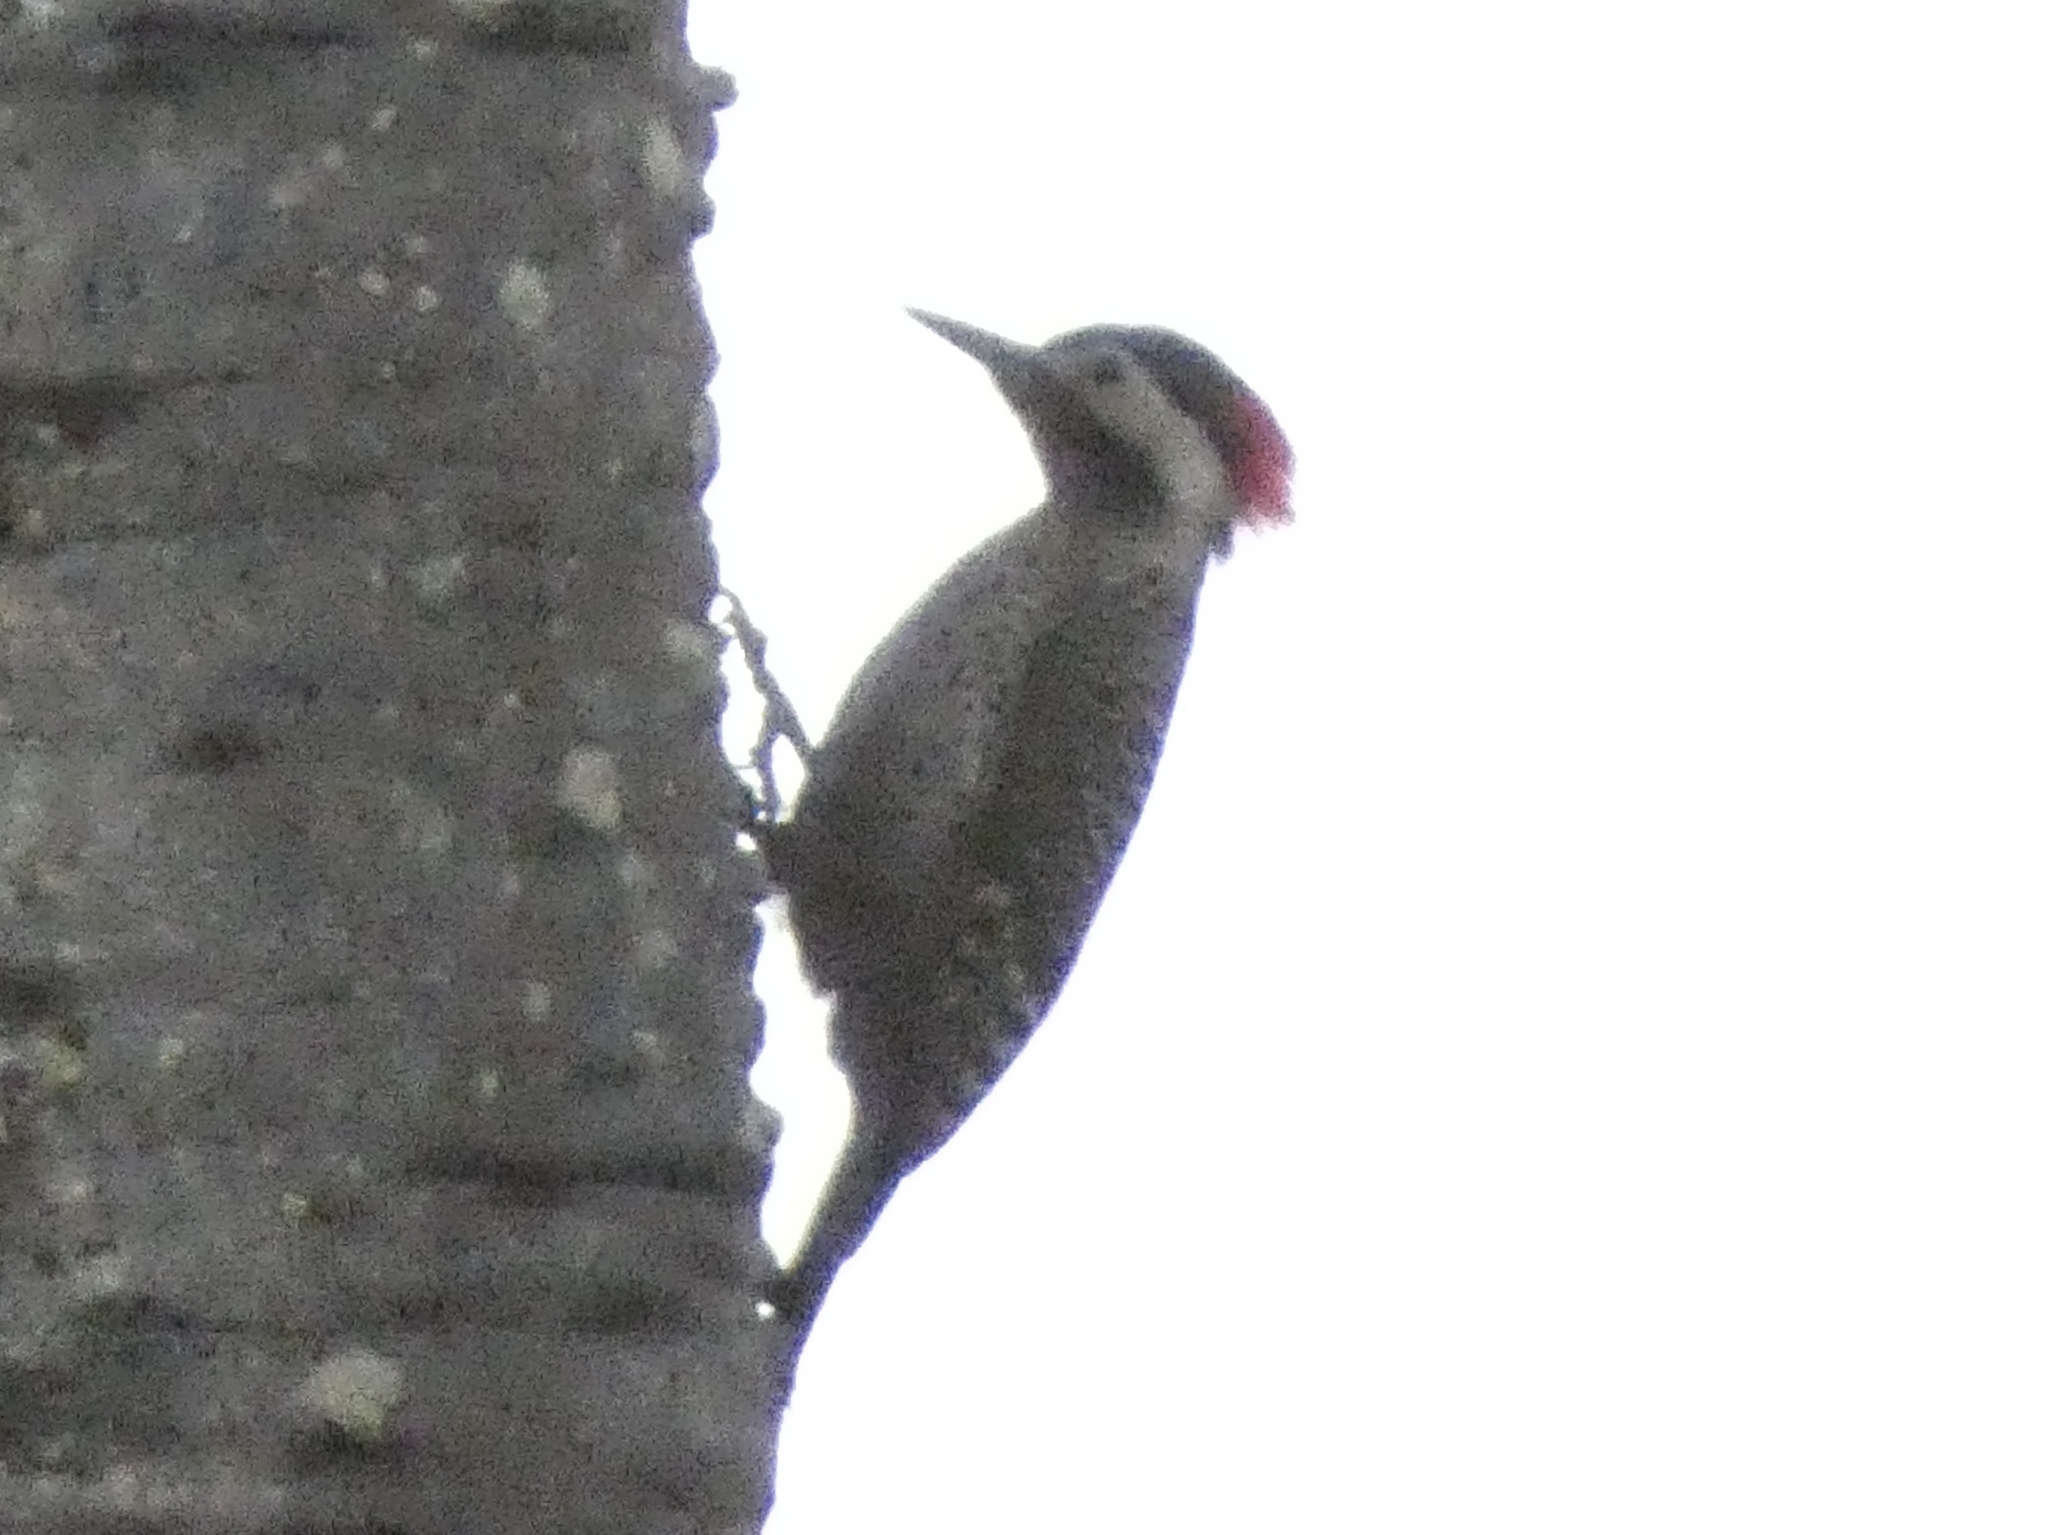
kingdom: Animalia
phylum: Chordata
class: Aves
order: Piciformes
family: Picidae
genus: Colaptes
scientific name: Colaptes melanochloros
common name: Green-barred woodpecker
